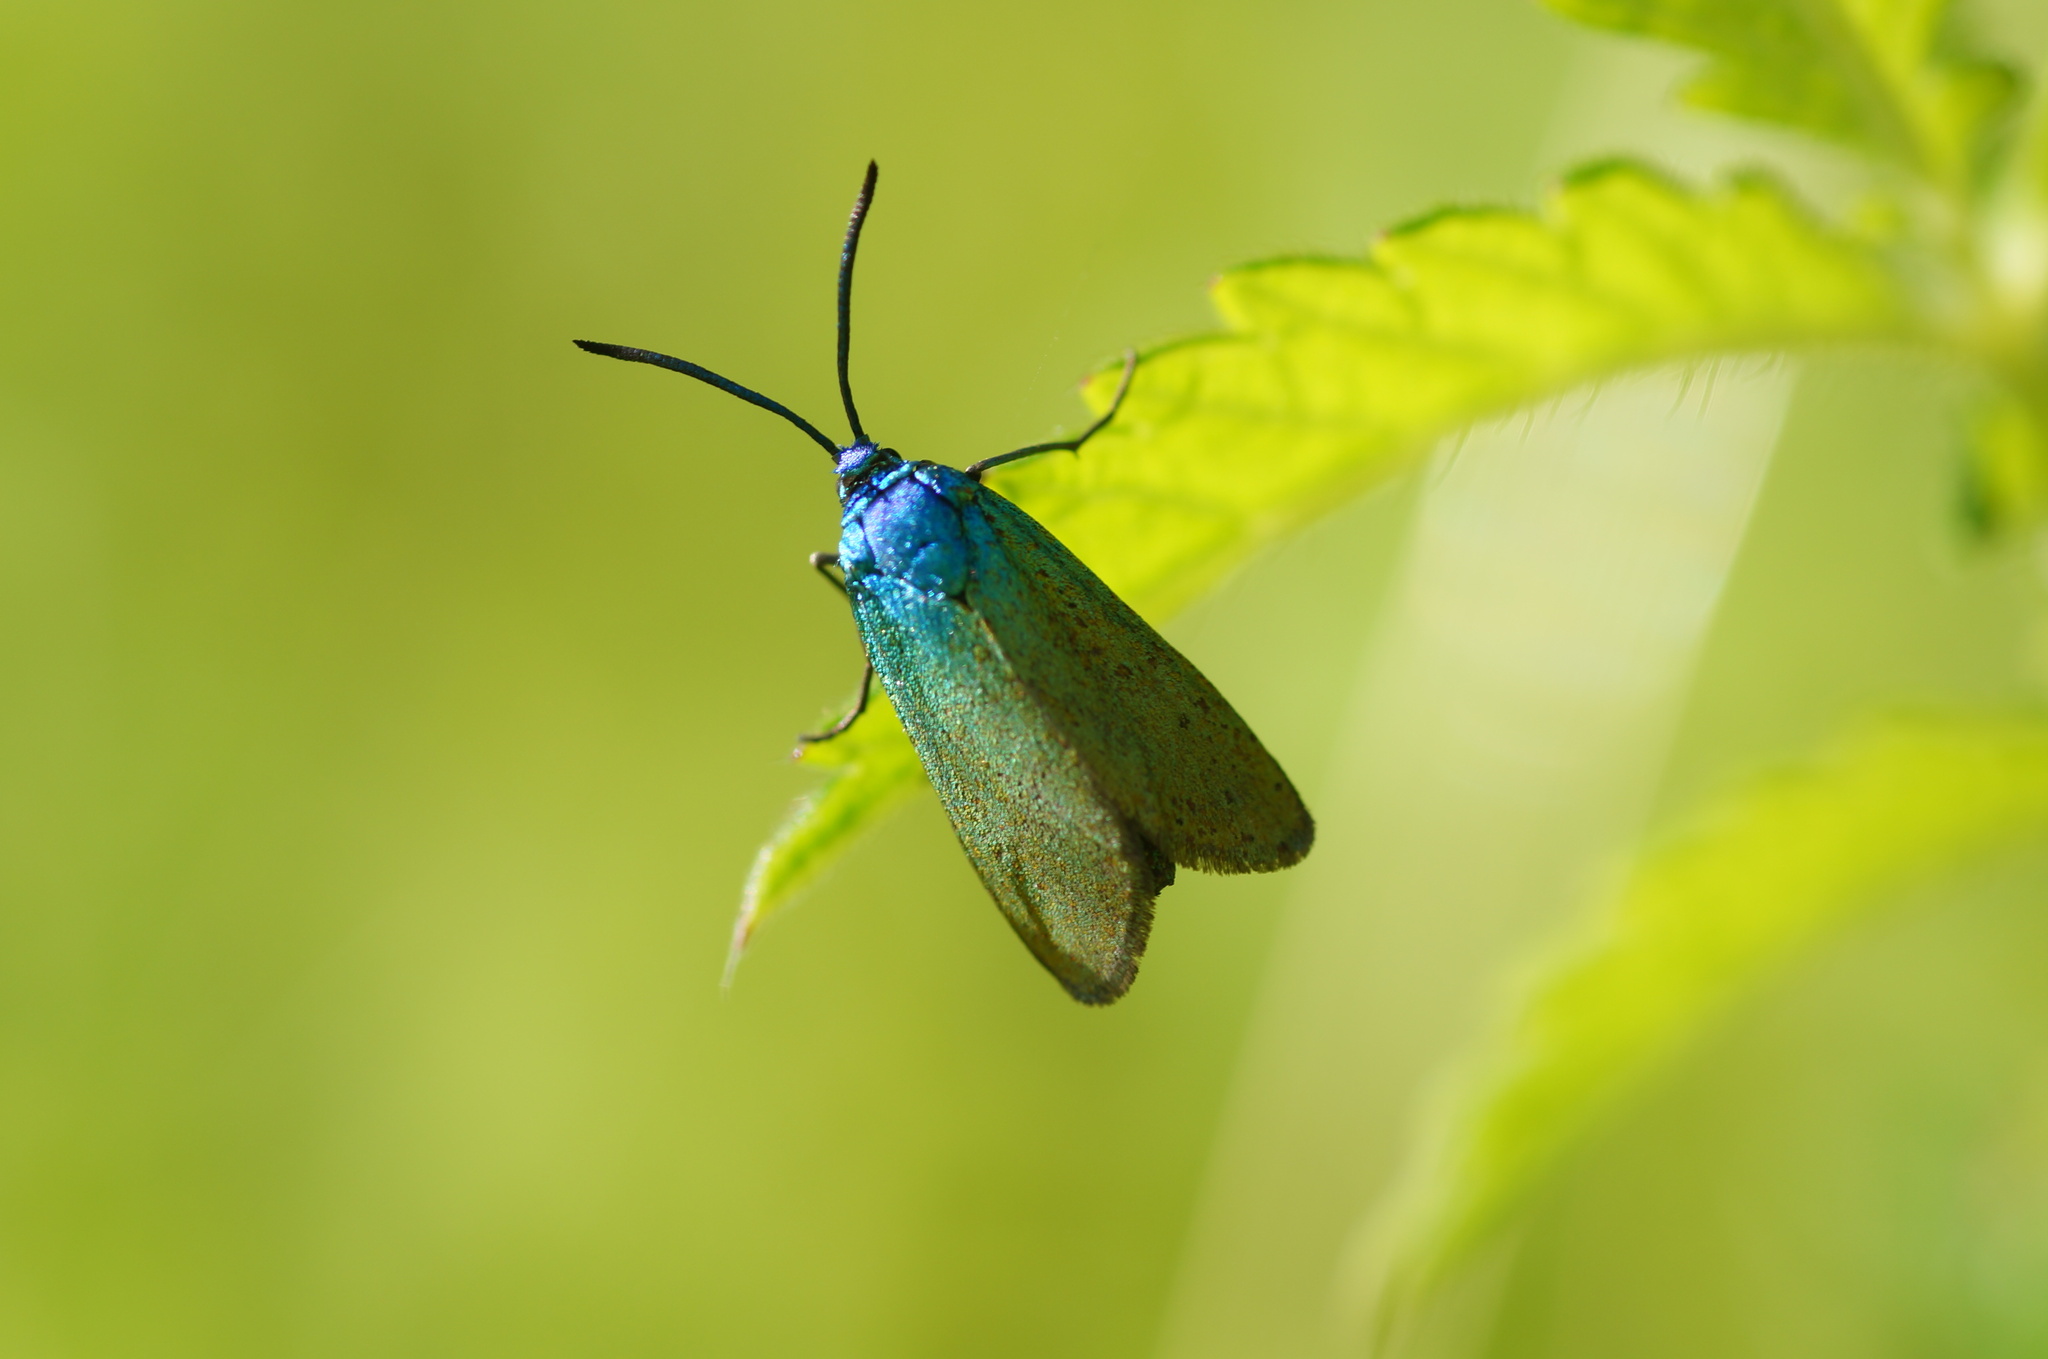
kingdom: Animalia
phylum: Arthropoda
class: Insecta
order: Lepidoptera
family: Zygaenidae
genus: Jordanita
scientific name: Jordanita chloros
